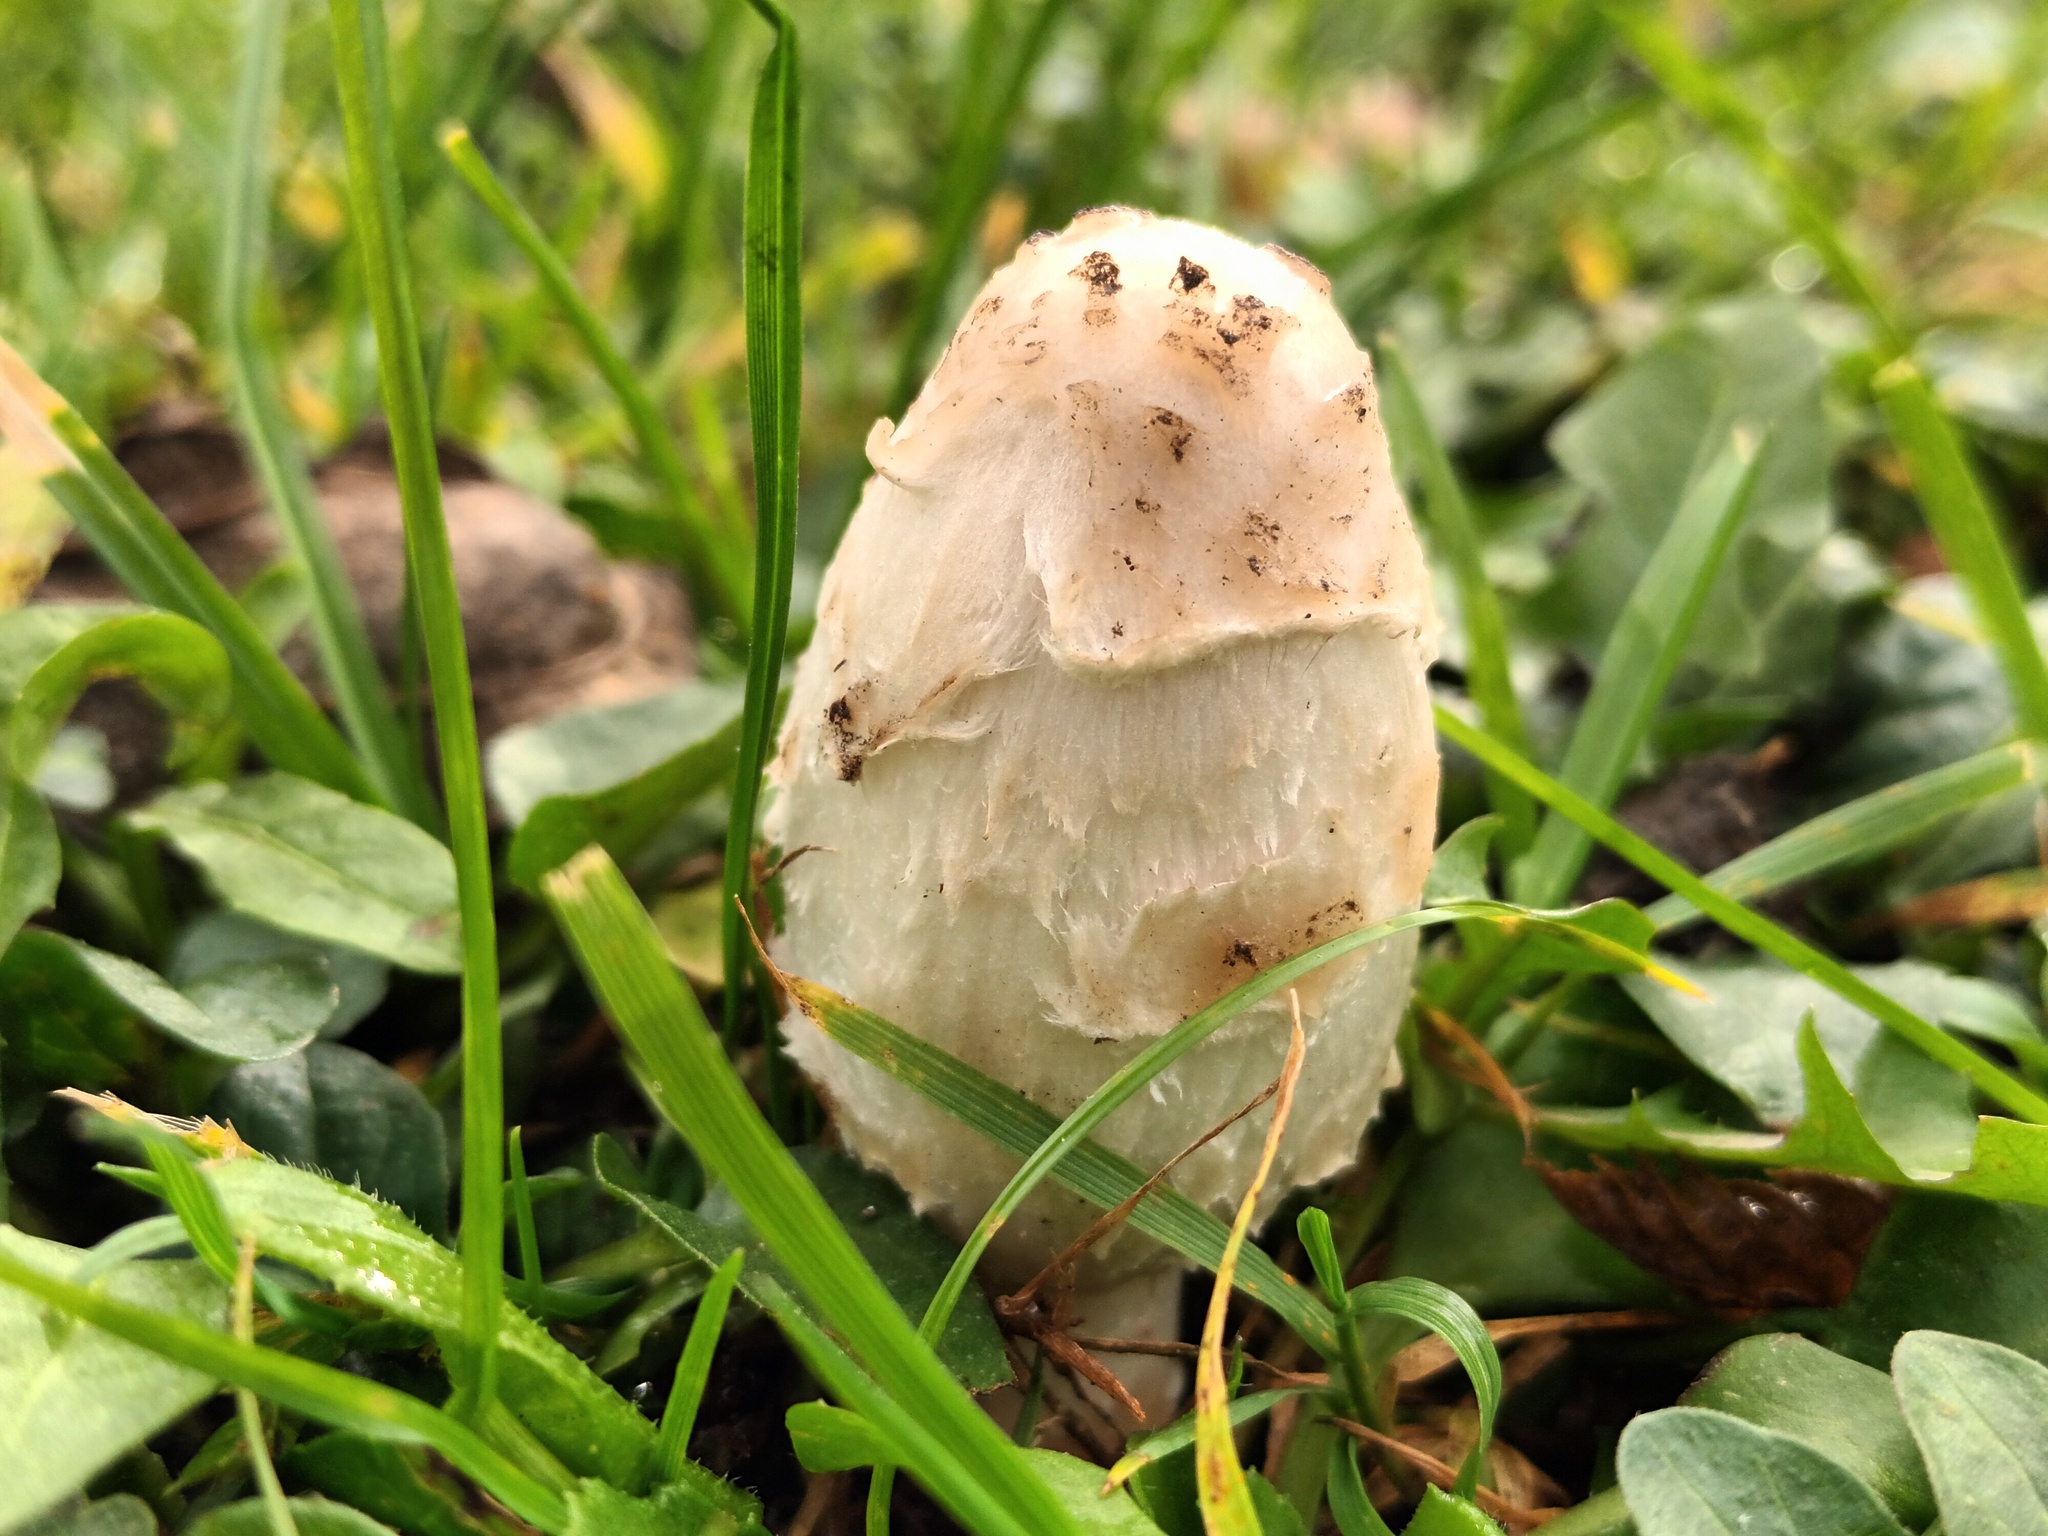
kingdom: Fungi
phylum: Basidiomycota
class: Agaricomycetes
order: Agaricales
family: Agaricaceae
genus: Coprinus
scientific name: Coprinus comatus
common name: Lawyer's wig
